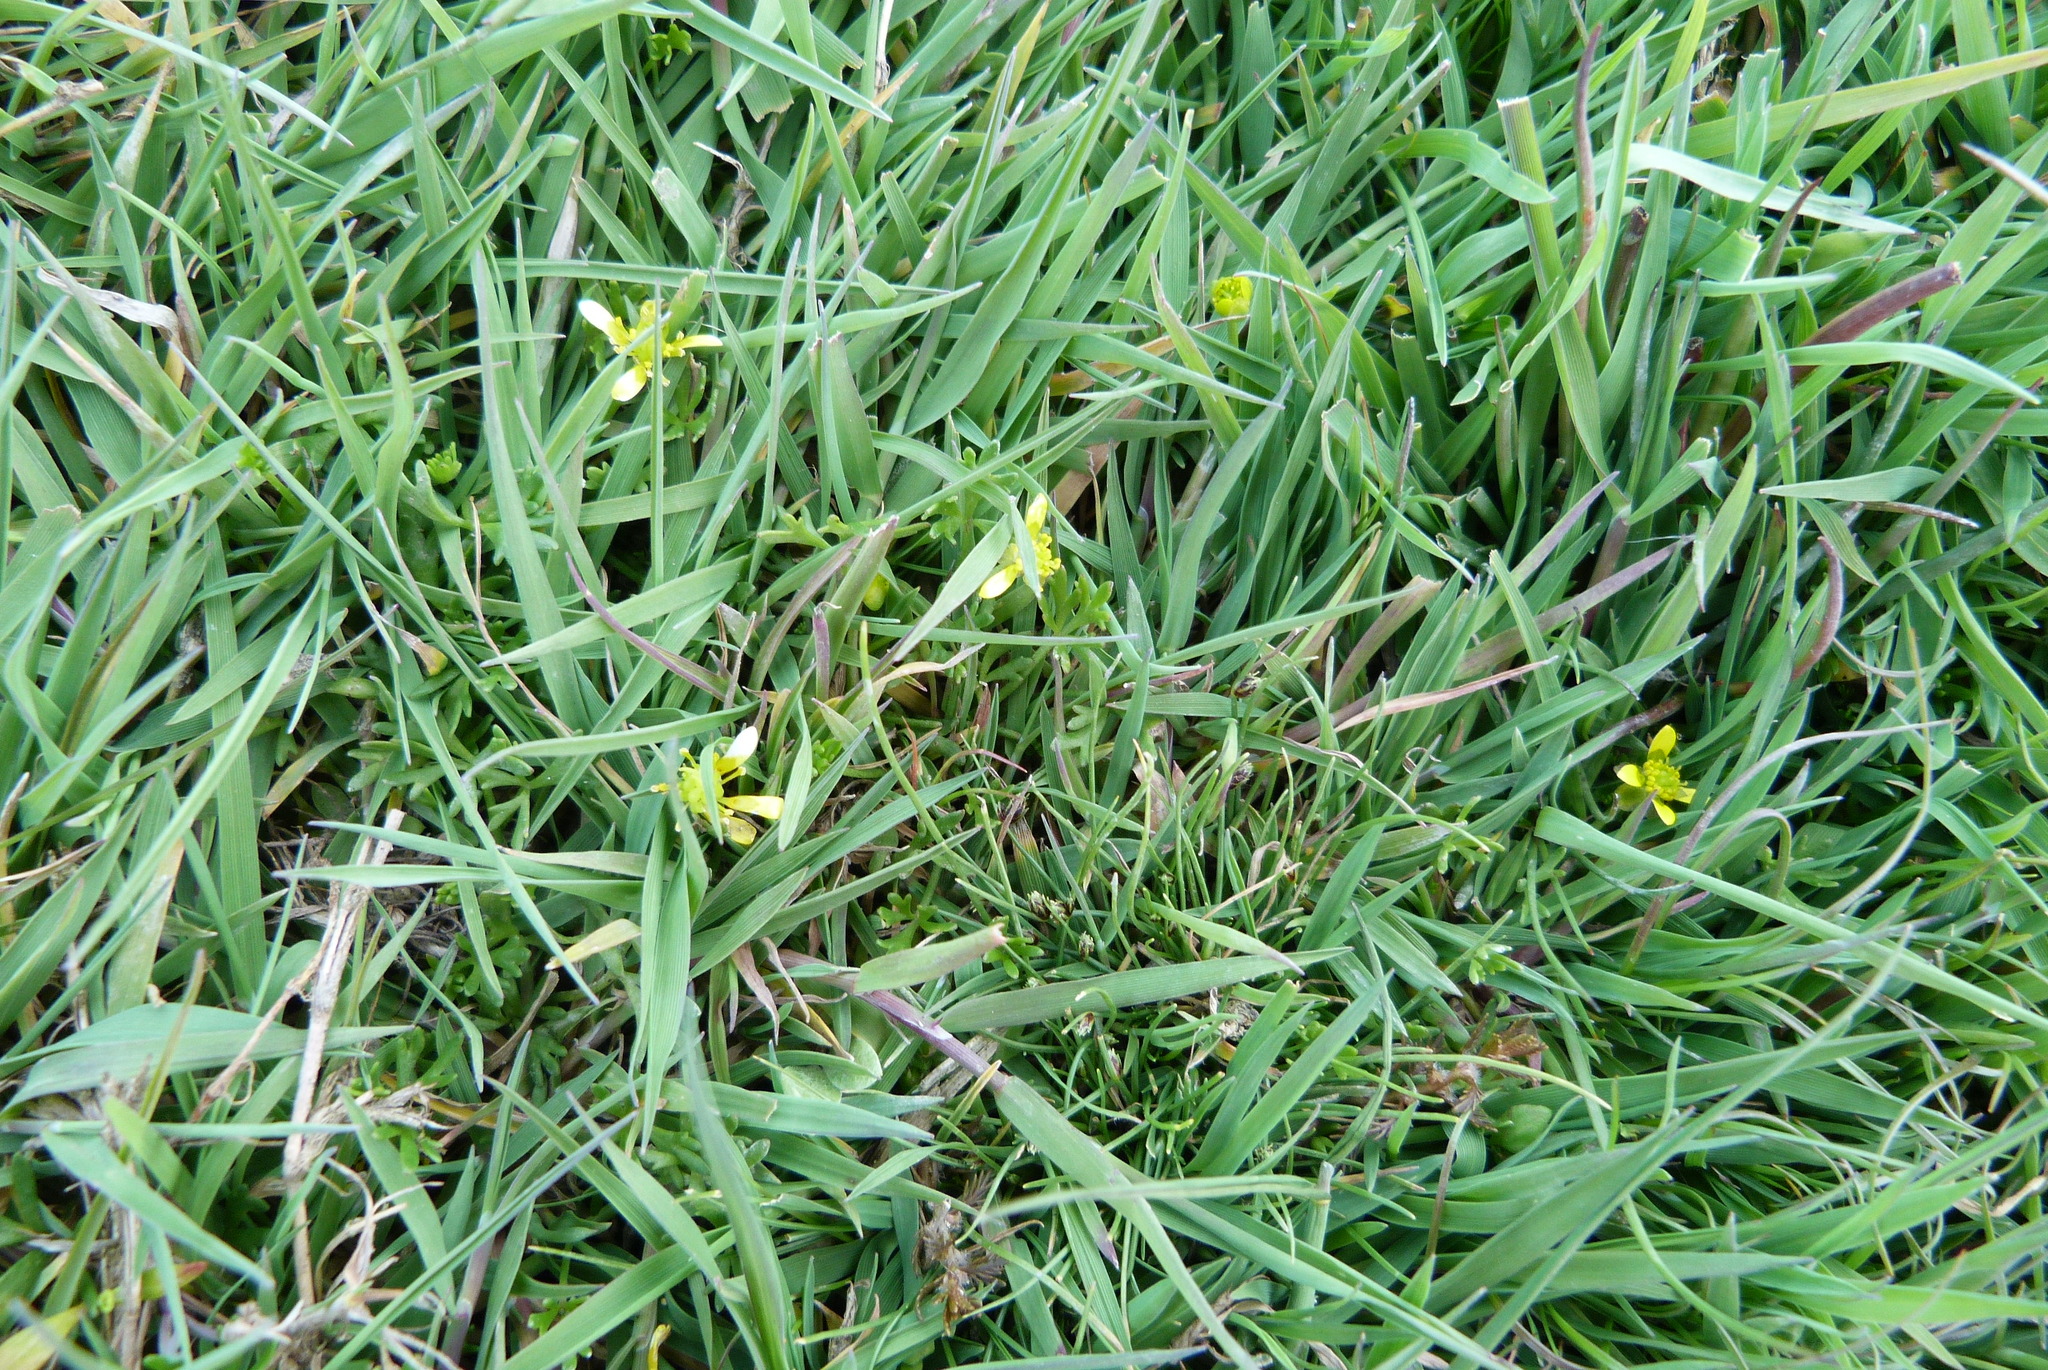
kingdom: Plantae
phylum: Tracheophyta
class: Liliopsida
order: Poales
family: Cyperaceae
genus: Isolepis
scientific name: Isolepis setacea
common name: Bristle club-rush
